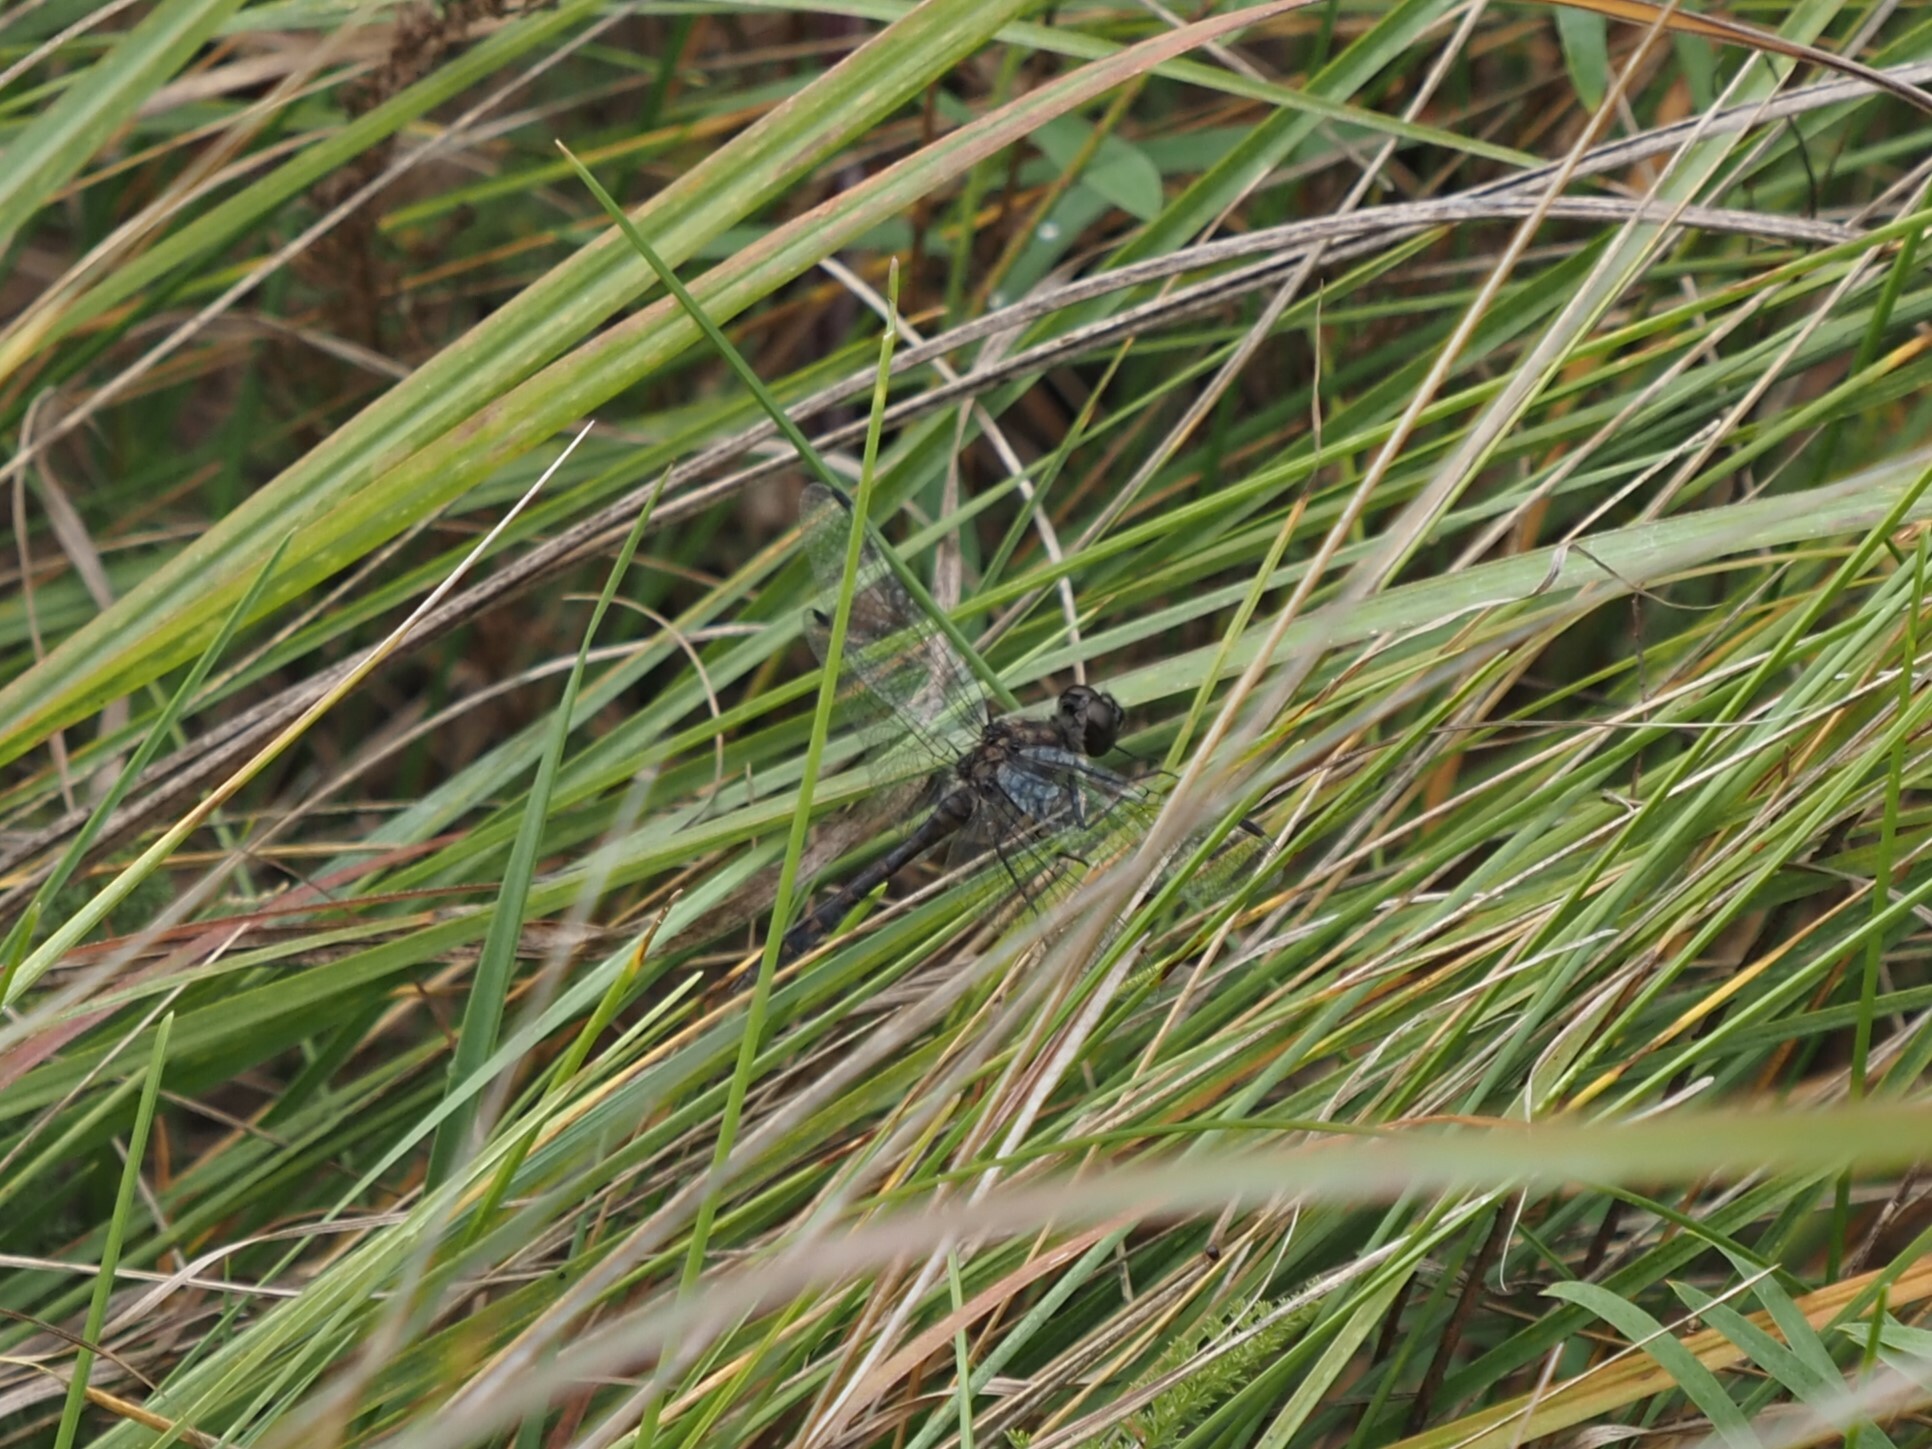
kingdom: Animalia
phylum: Arthropoda
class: Insecta
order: Odonata
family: Libellulidae
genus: Sympetrum
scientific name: Sympetrum danae
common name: Black darter
